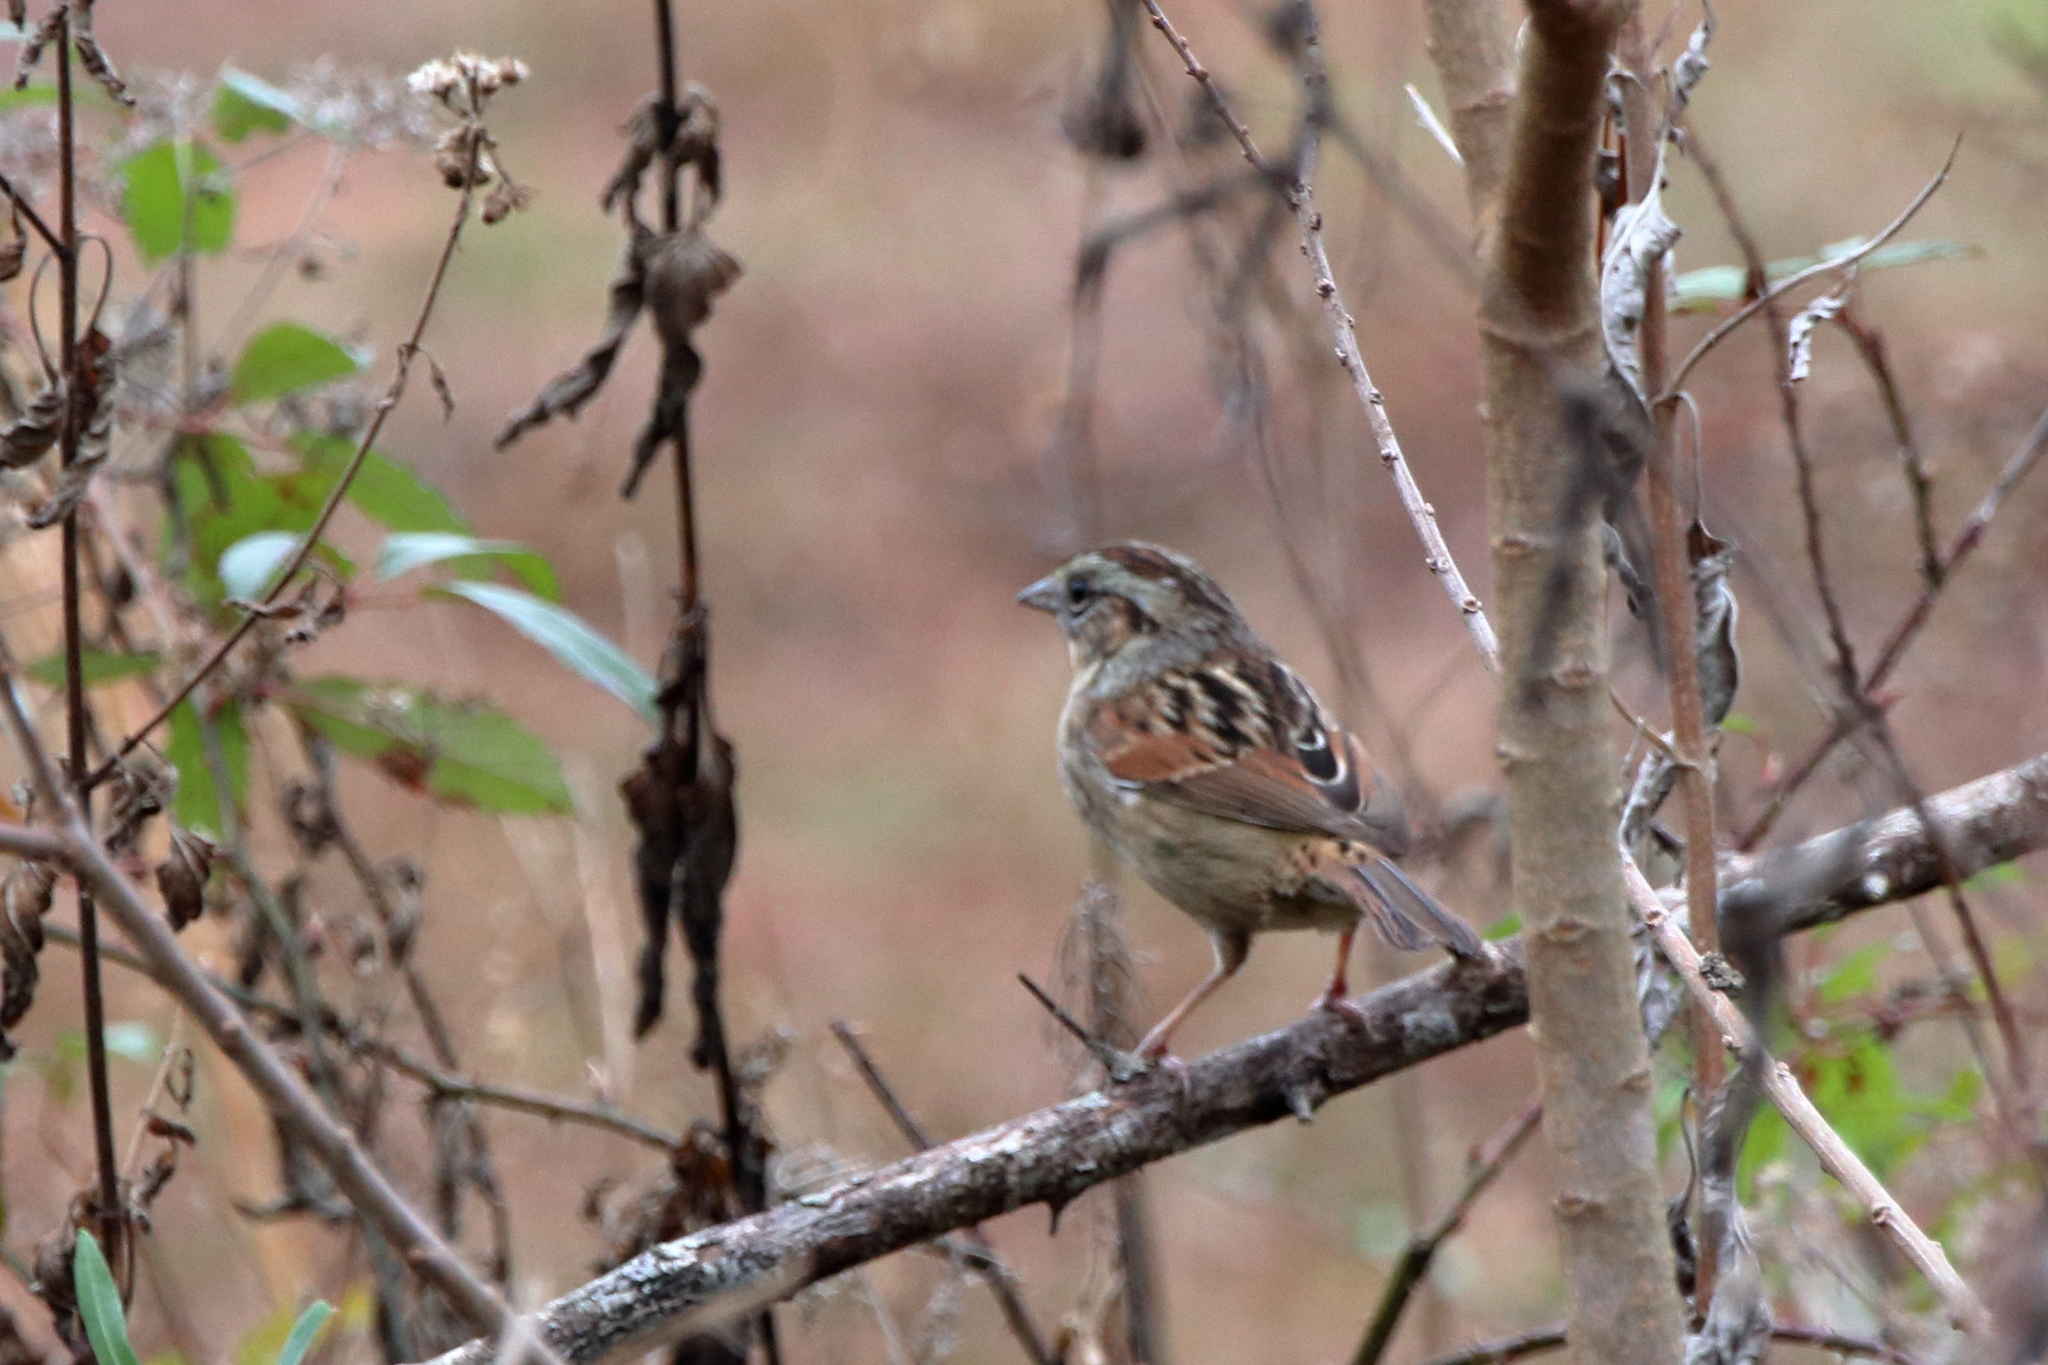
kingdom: Animalia
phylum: Chordata
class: Aves
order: Passeriformes
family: Passerellidae
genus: Melospiza
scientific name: Melospiza georgiana
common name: Swamp sparrow
